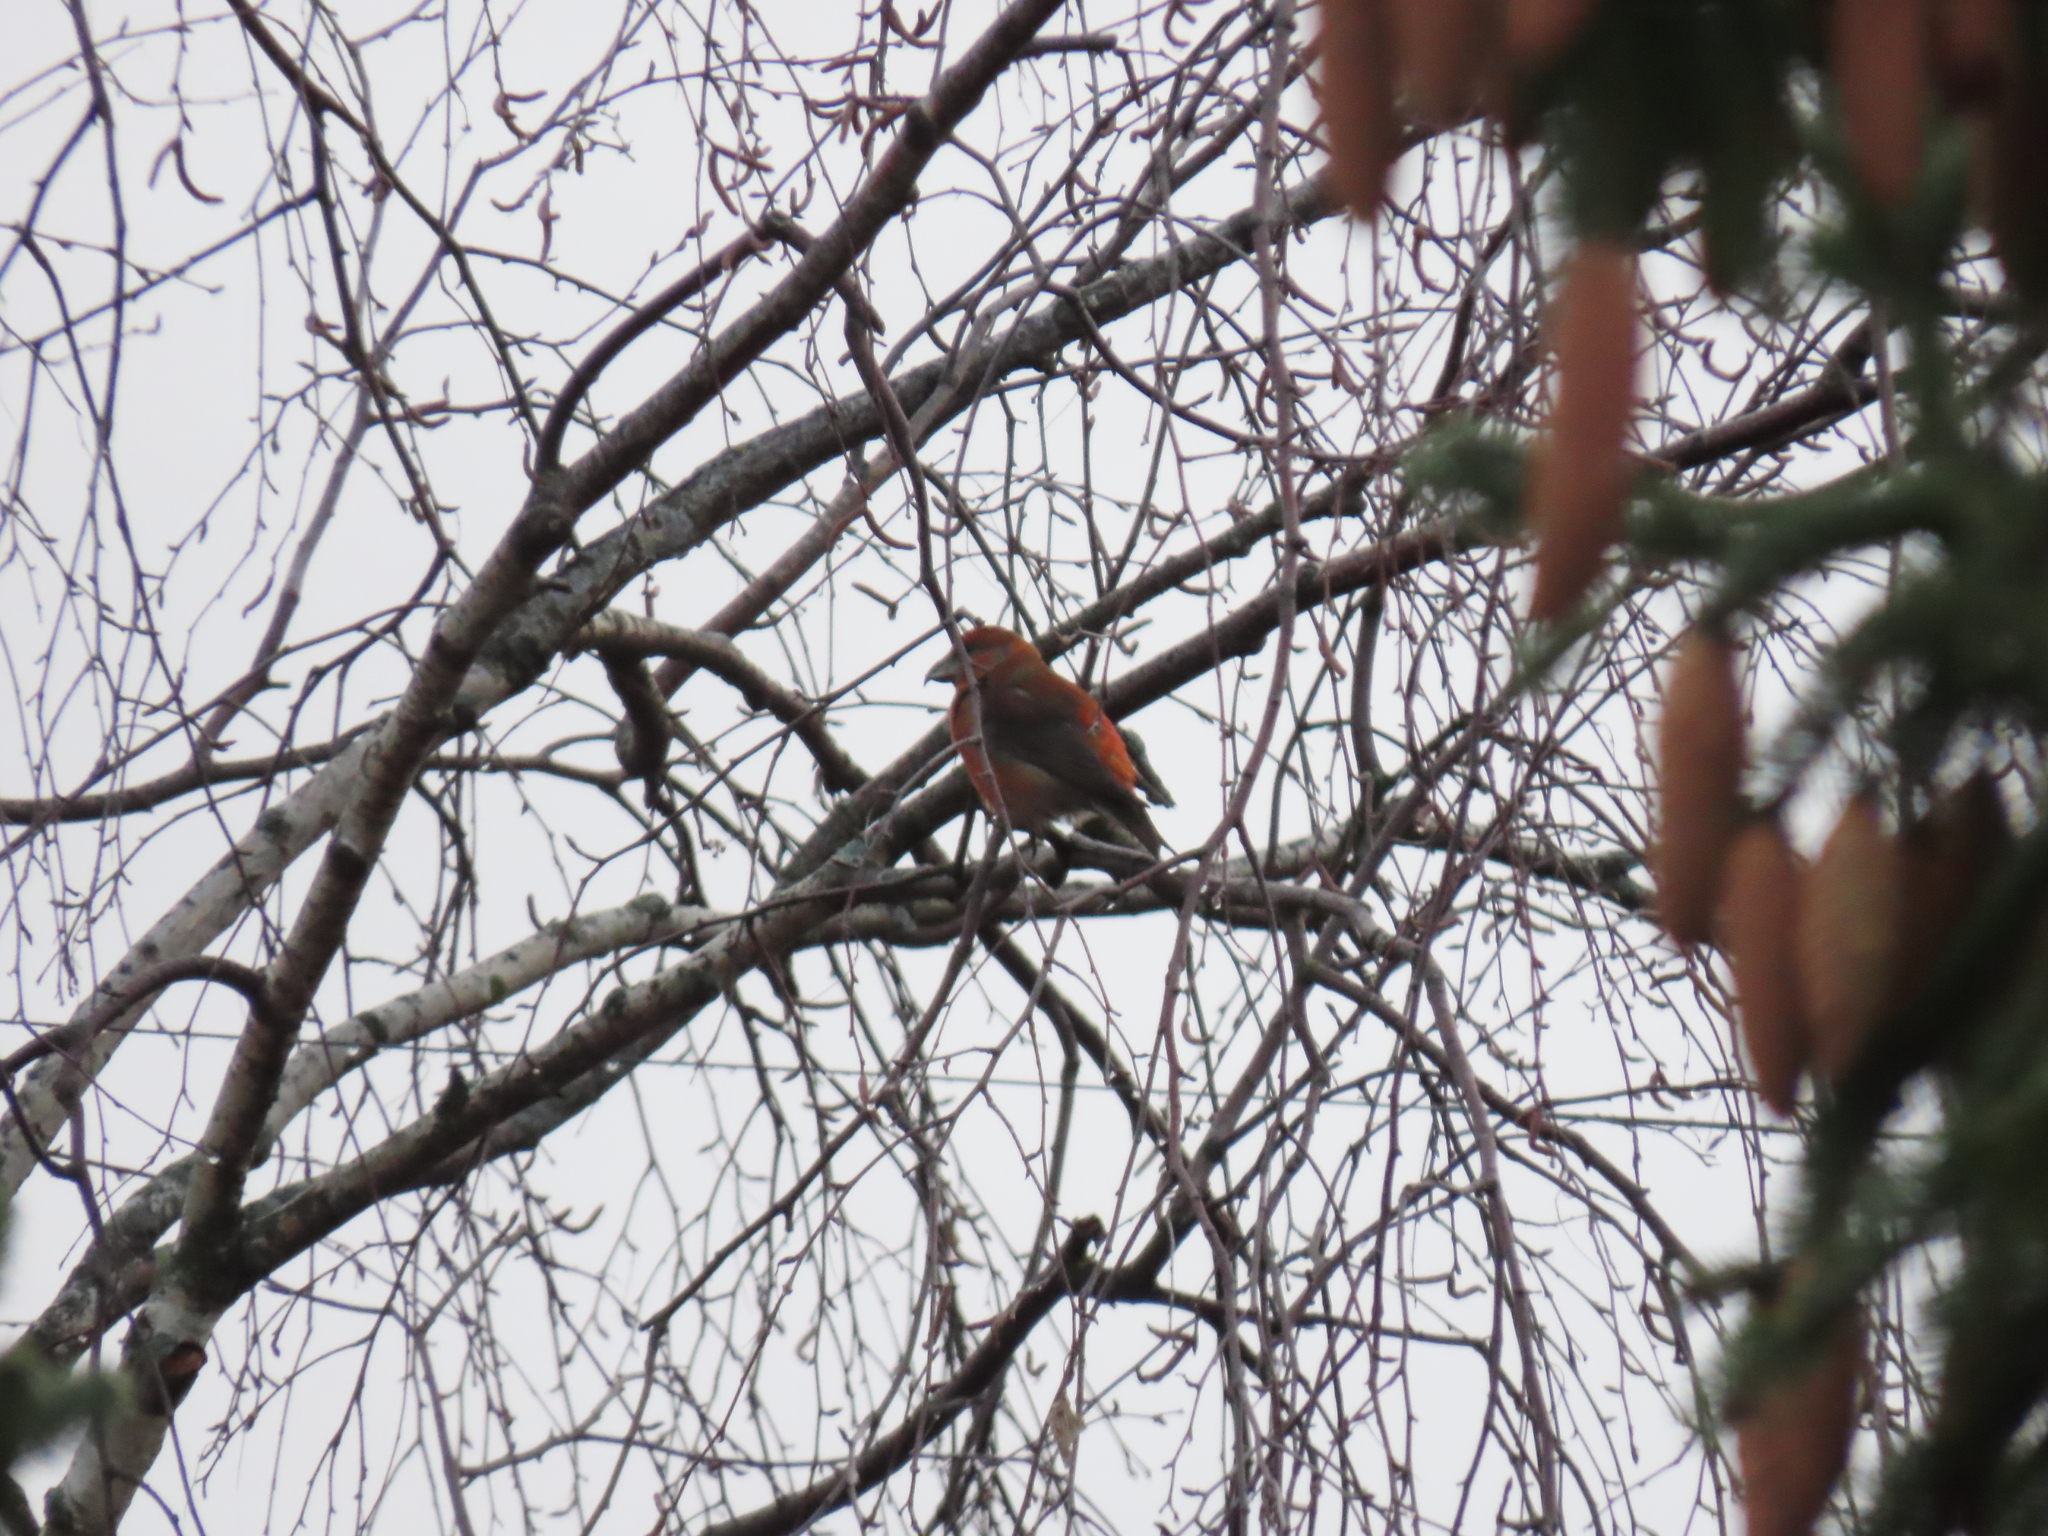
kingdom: Animalia
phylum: Chordata
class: Aves
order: Passeriformes
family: Fringillidae
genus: Loxia
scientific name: Loxia curvirostra
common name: Red crossbill
